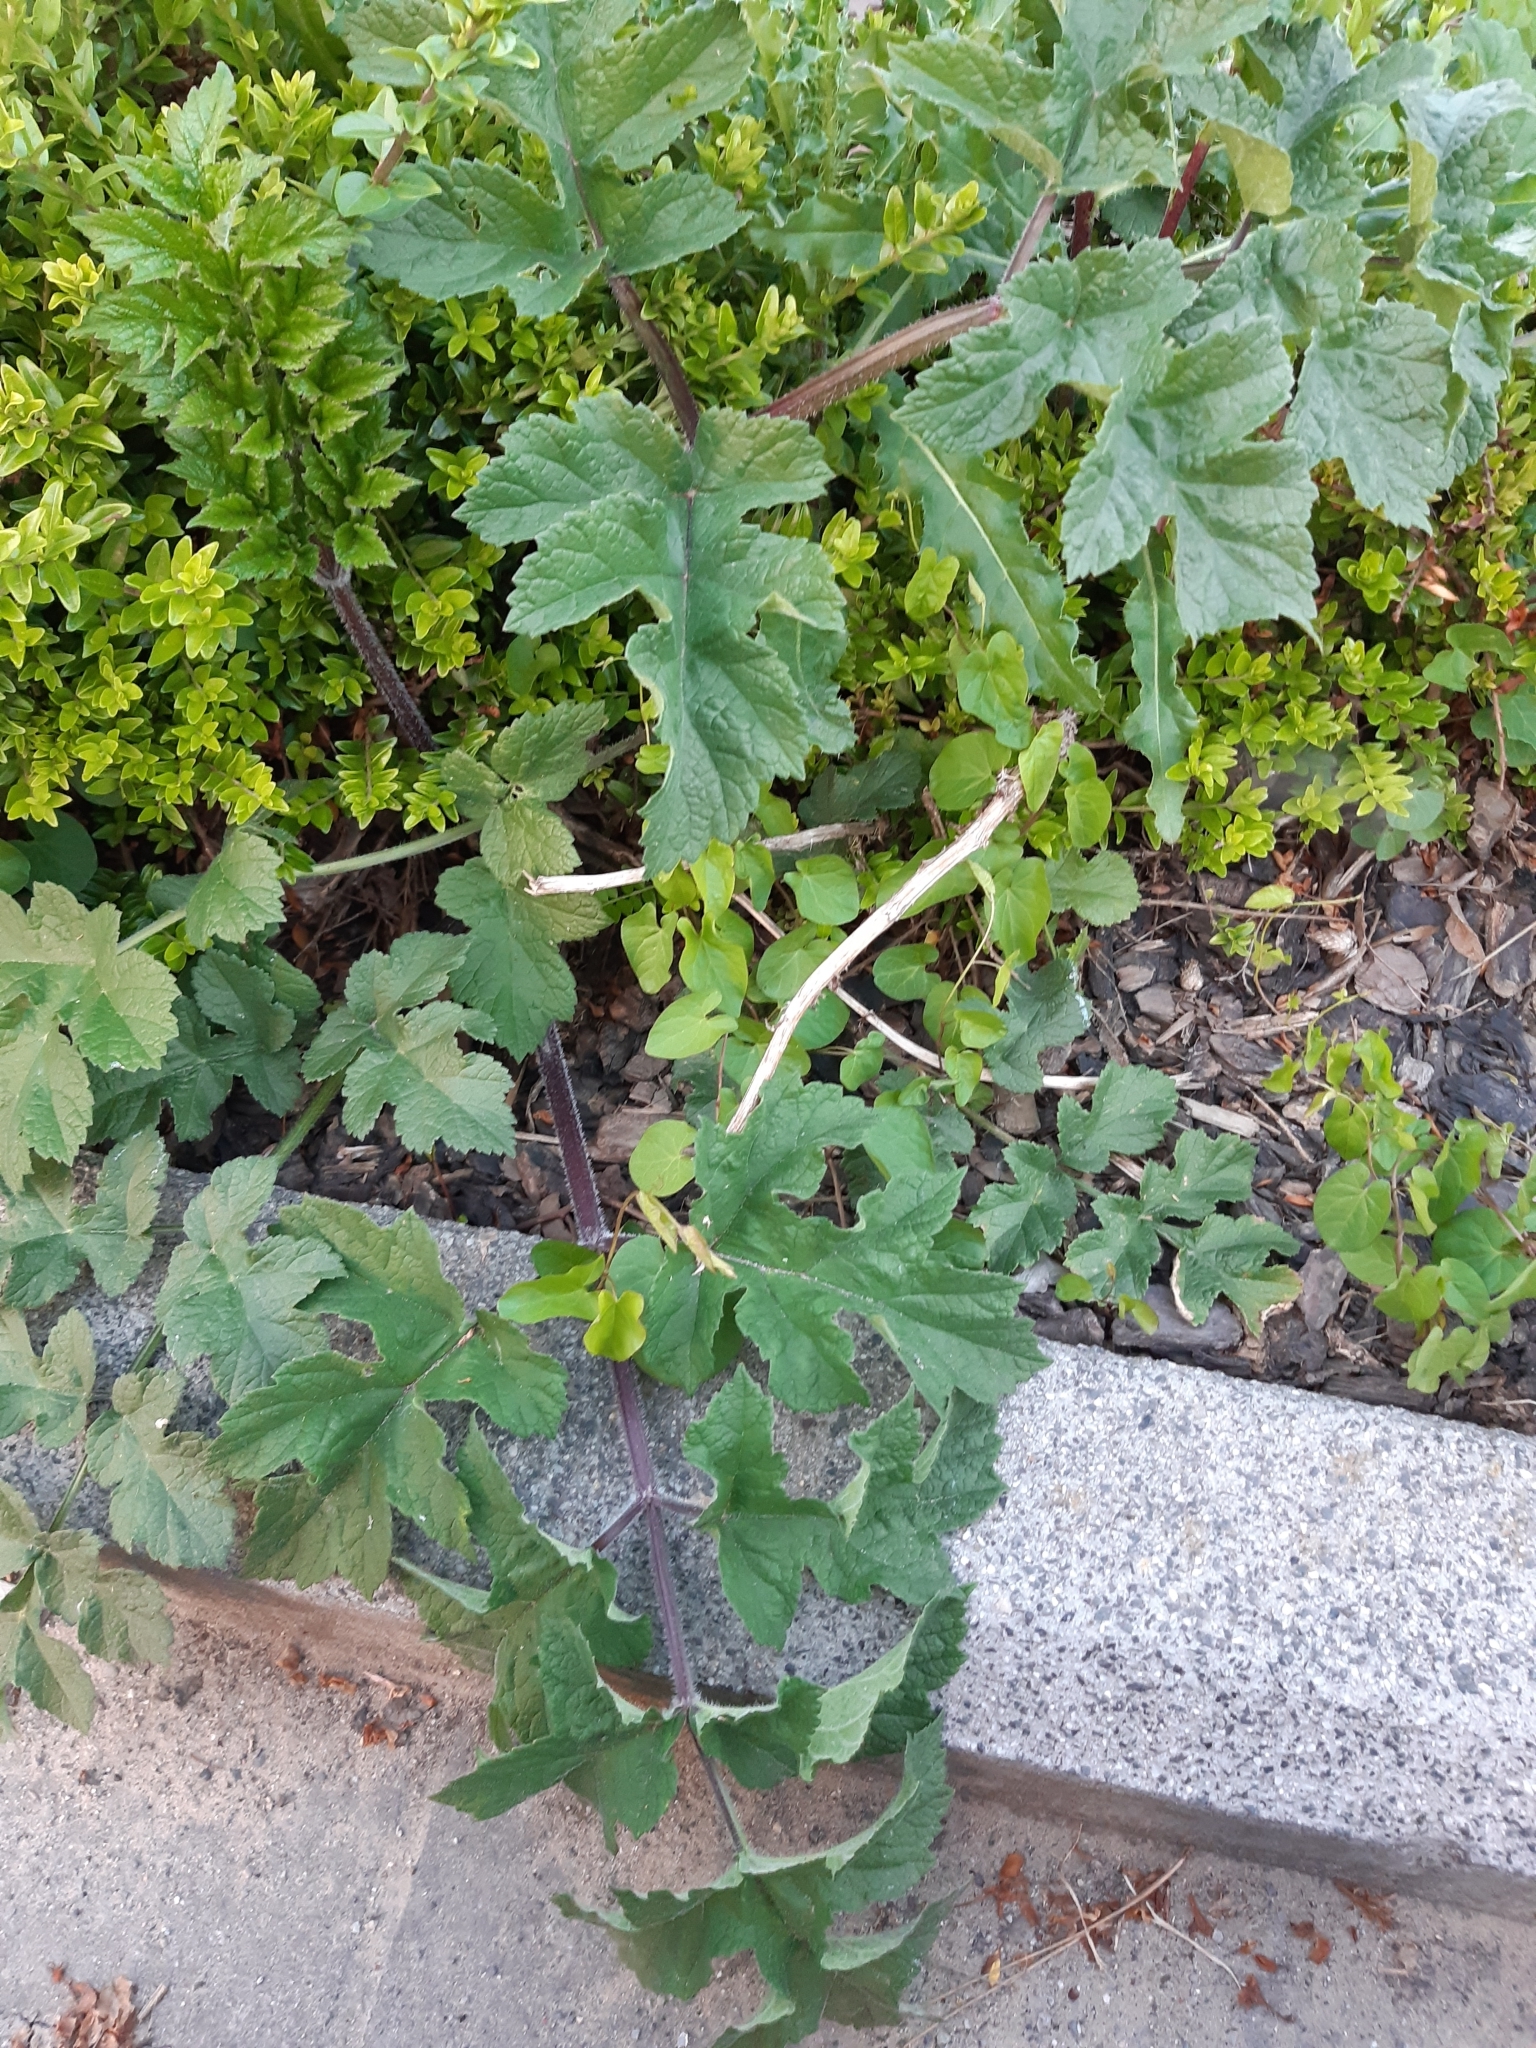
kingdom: Plantae
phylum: Tracheophyta
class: Magnoliopsida
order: Apiales
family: Apiaceae
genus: Heracleum
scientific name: Heracleum sphondylium
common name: Hogweed
